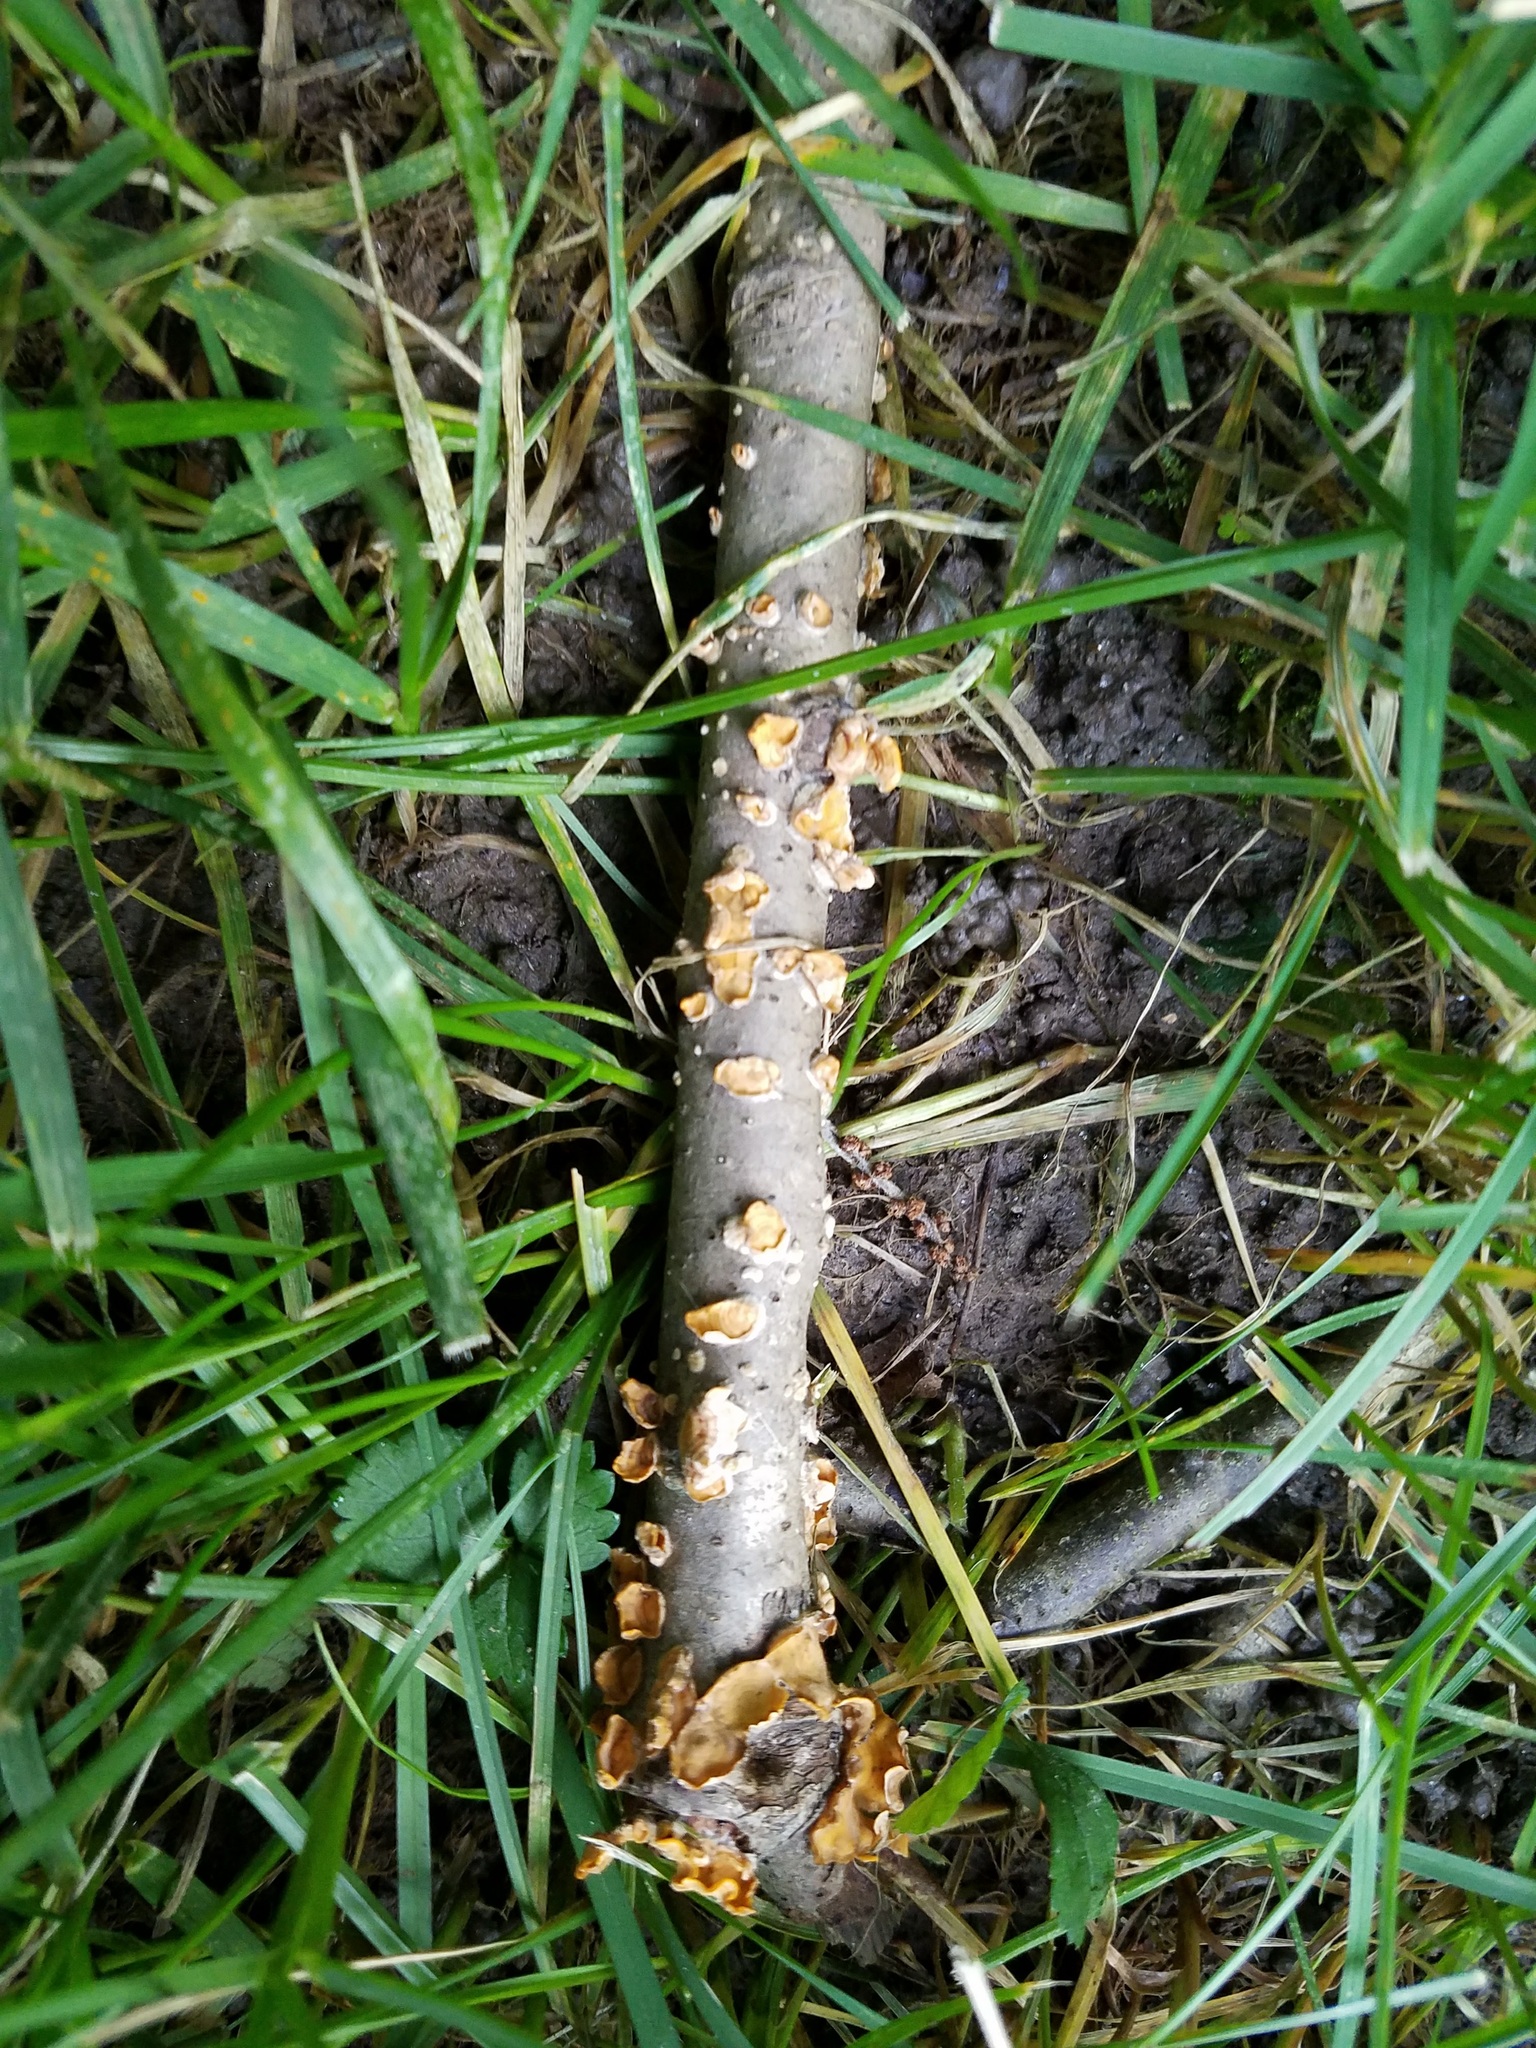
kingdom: Fungi
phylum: Basidiomycota
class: Agaricomycetes
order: Russulales
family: Stereaceae
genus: Stereum
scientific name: Stereum complicatum
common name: Crowded parchment
